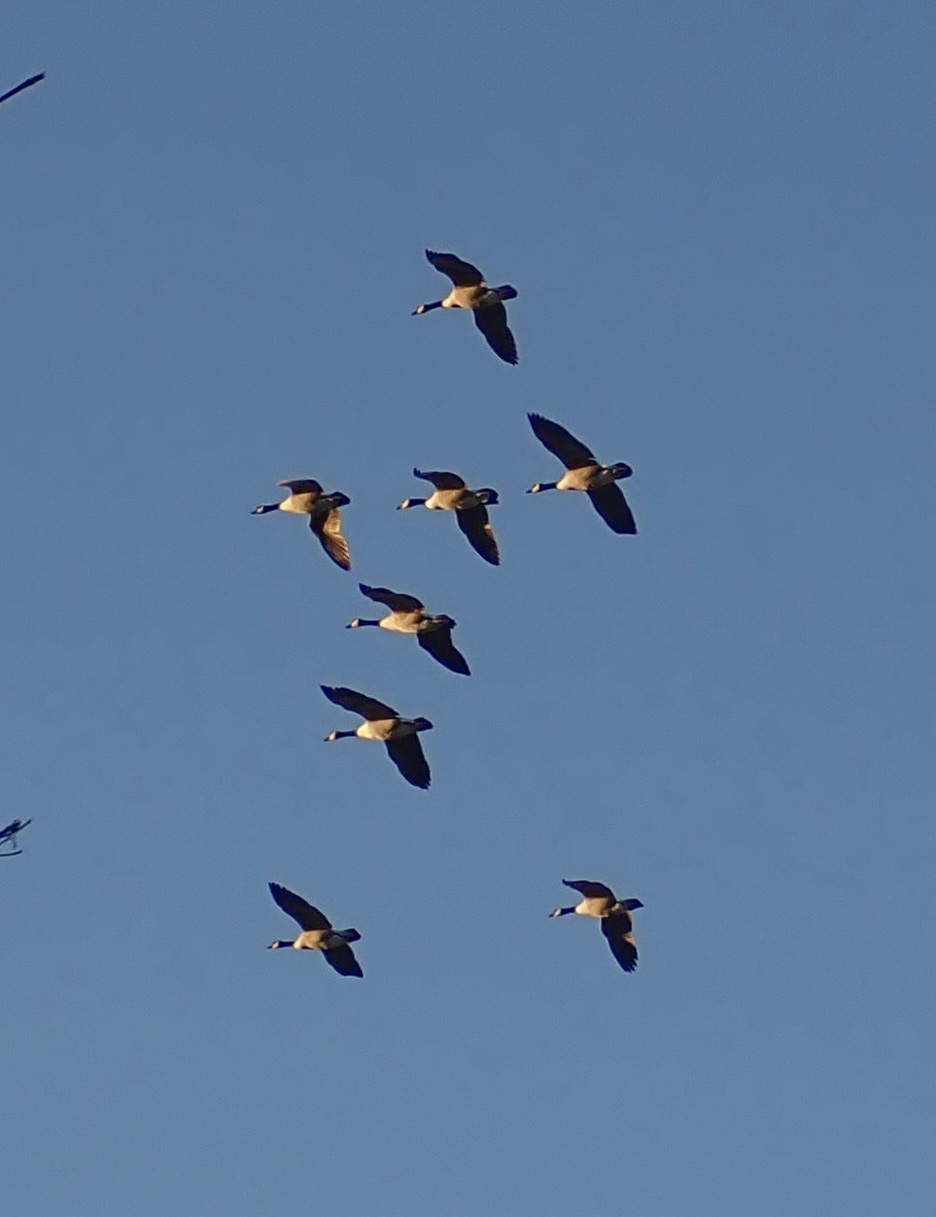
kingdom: Animalia
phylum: Chordata
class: Aves
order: Anseriformes
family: Anatidae
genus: Branta
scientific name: Branta canadensis
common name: Canada goose
